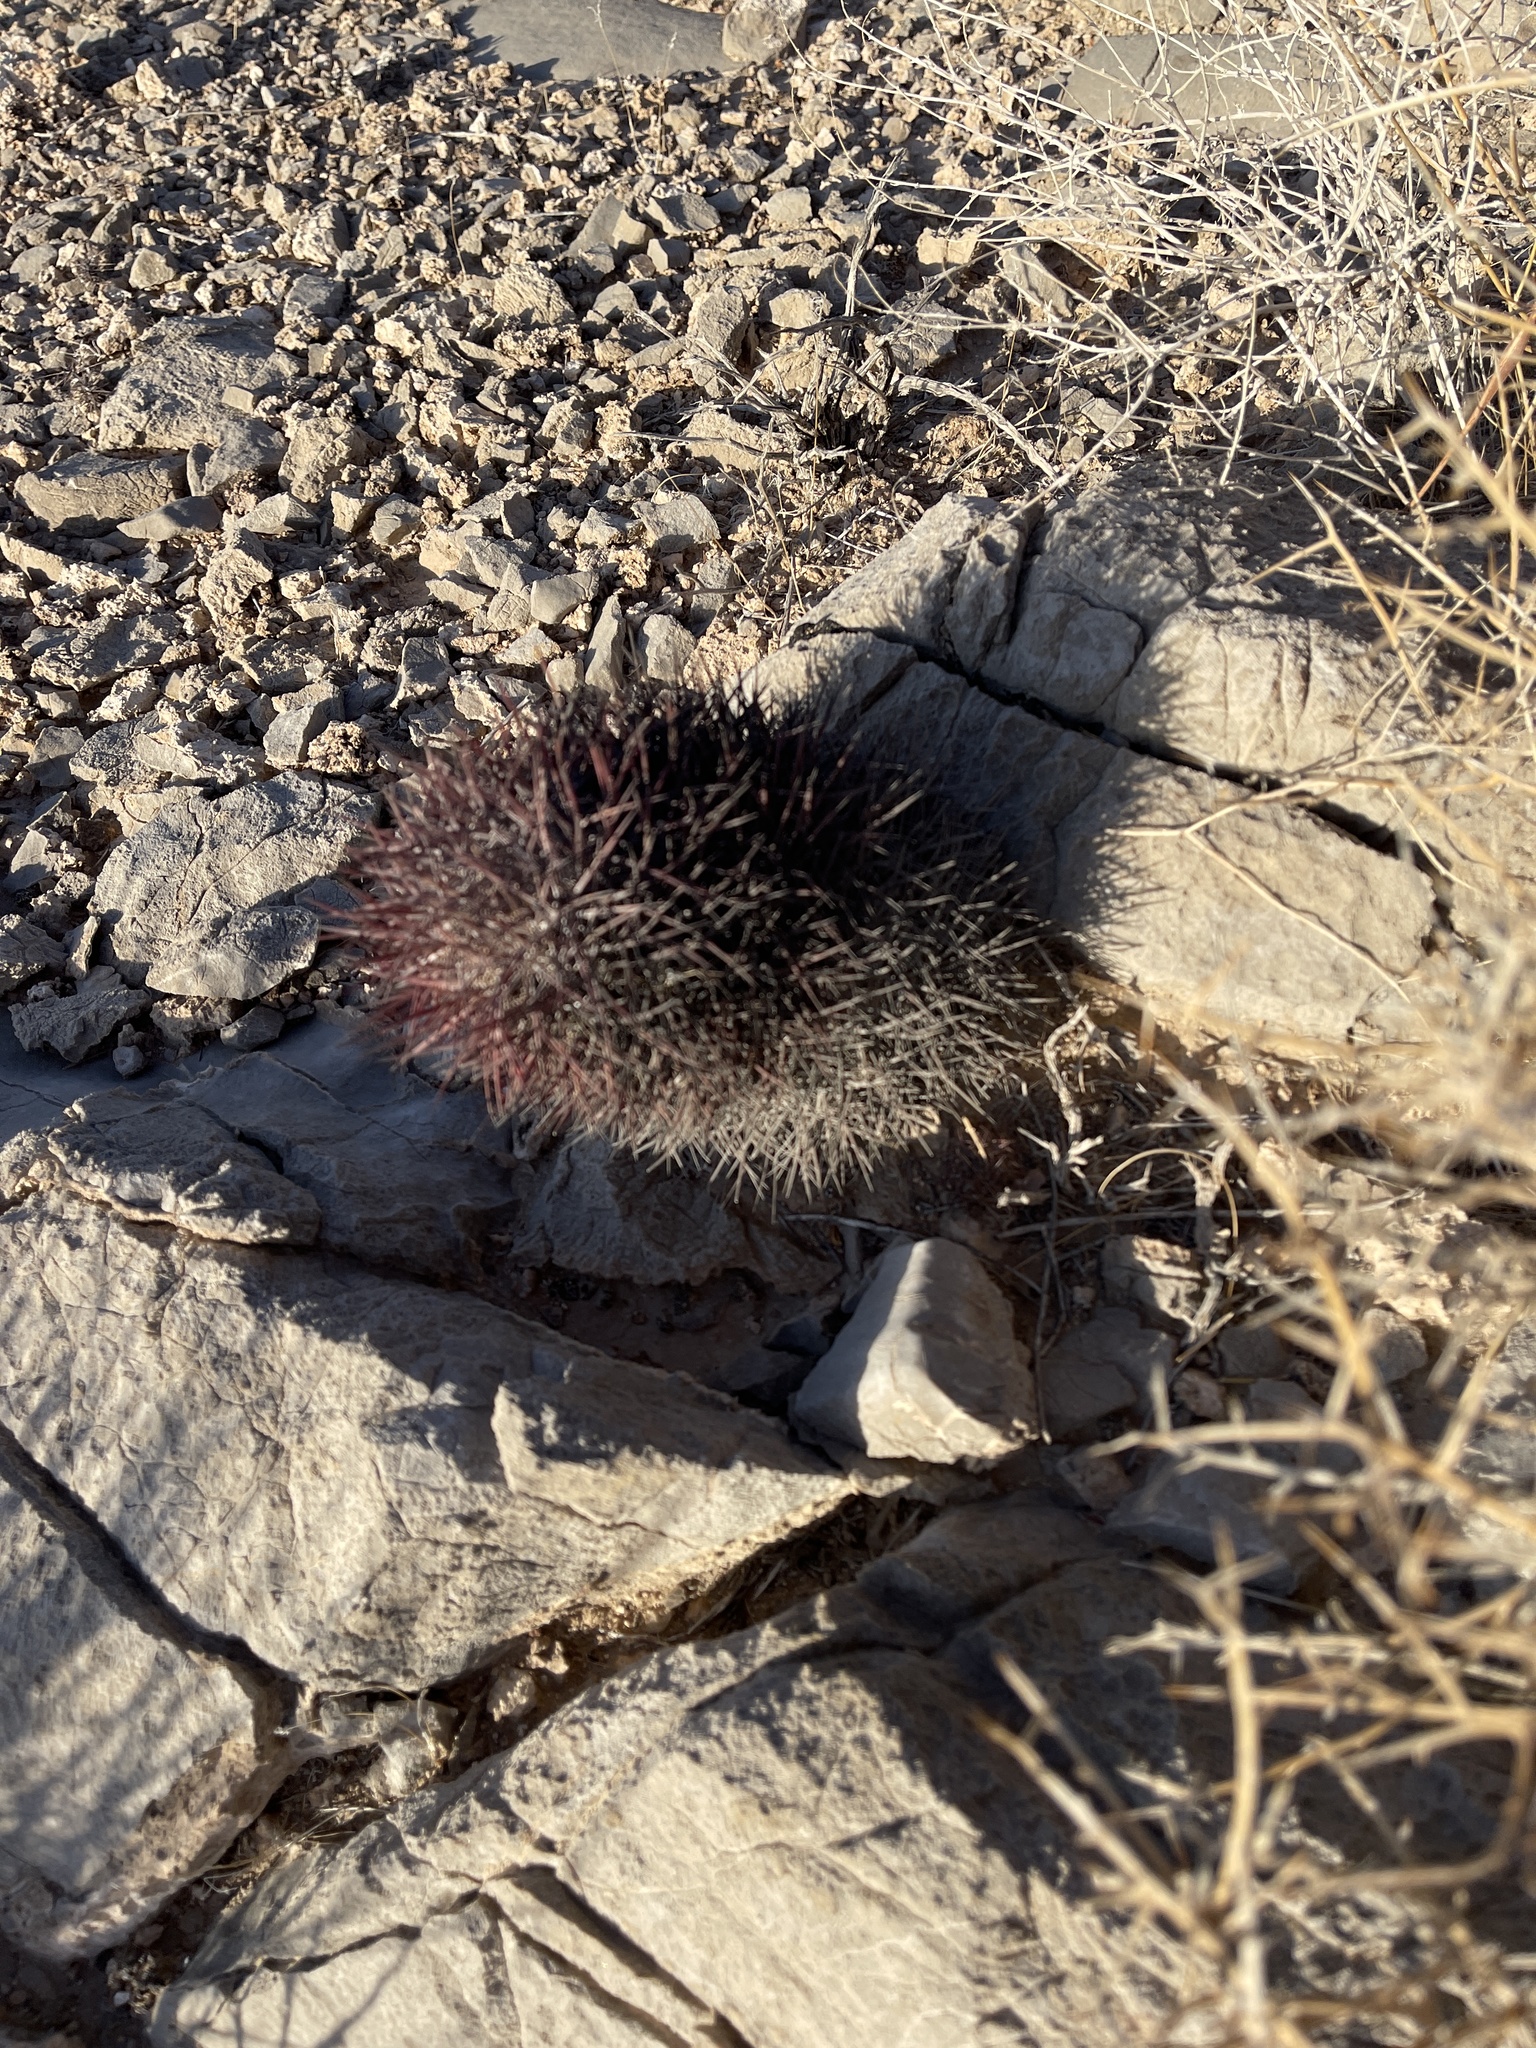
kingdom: Plantae
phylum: Tracheophyta
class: Magnoliopsida
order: Caryophyllales
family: Cactaceae
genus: Sclerocactus
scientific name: Sclerocactus johnsonii
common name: Eight-spine fishhook cactus
